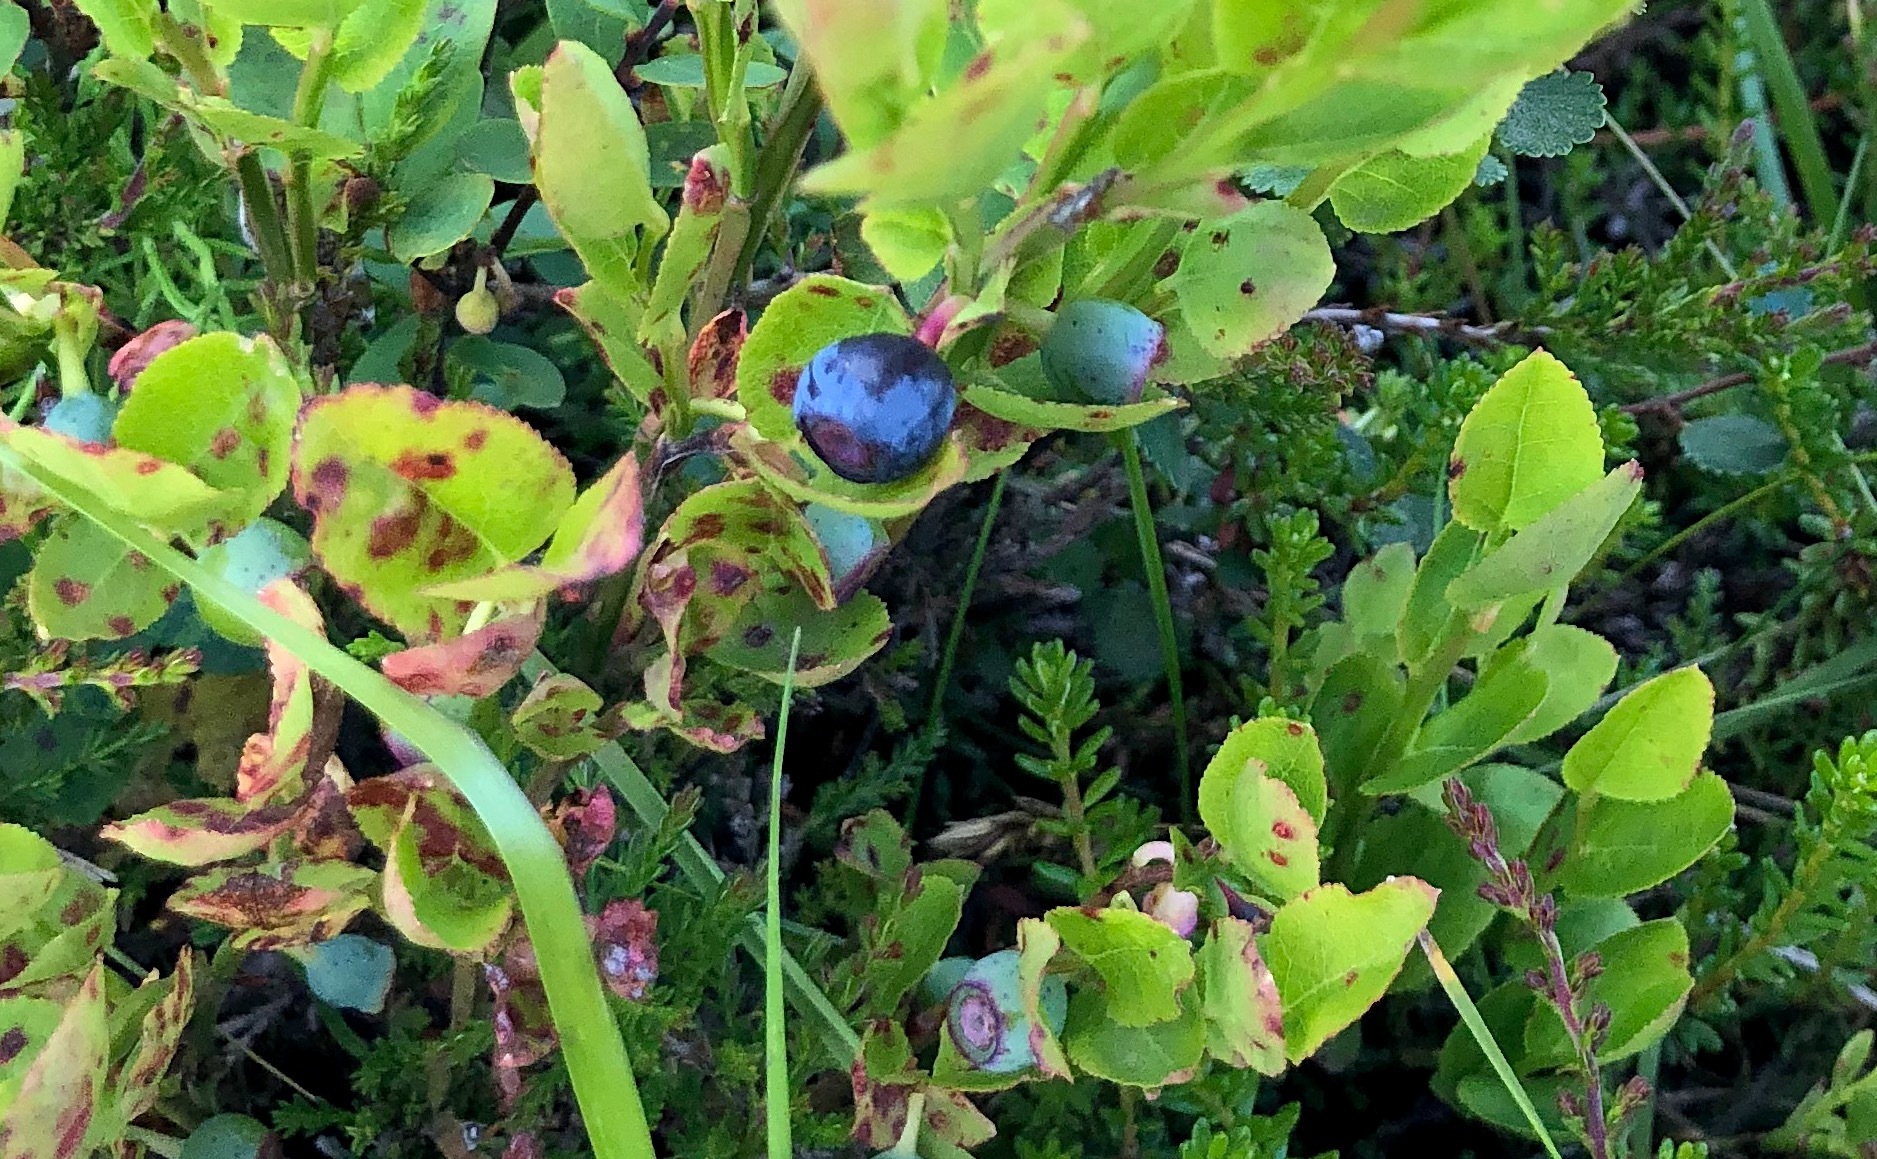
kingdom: Plantae
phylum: Tracheophyta
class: Magnoliopsida
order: Ericales
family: Ericaceae
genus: Vaccinium
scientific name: Vaccinium myrtillus
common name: Bilberry
